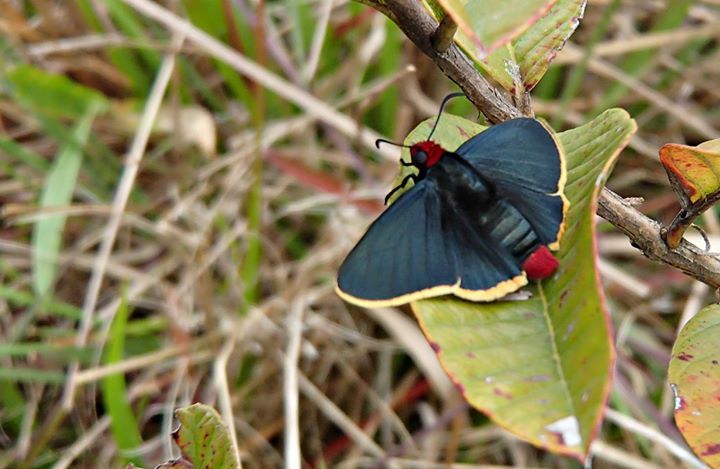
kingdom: Animalia
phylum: Arthropoda
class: Insecta
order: Lepidoptera
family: Hesperiidae
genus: Pyrrhopyge
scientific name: Pyrrhopyge pelota
